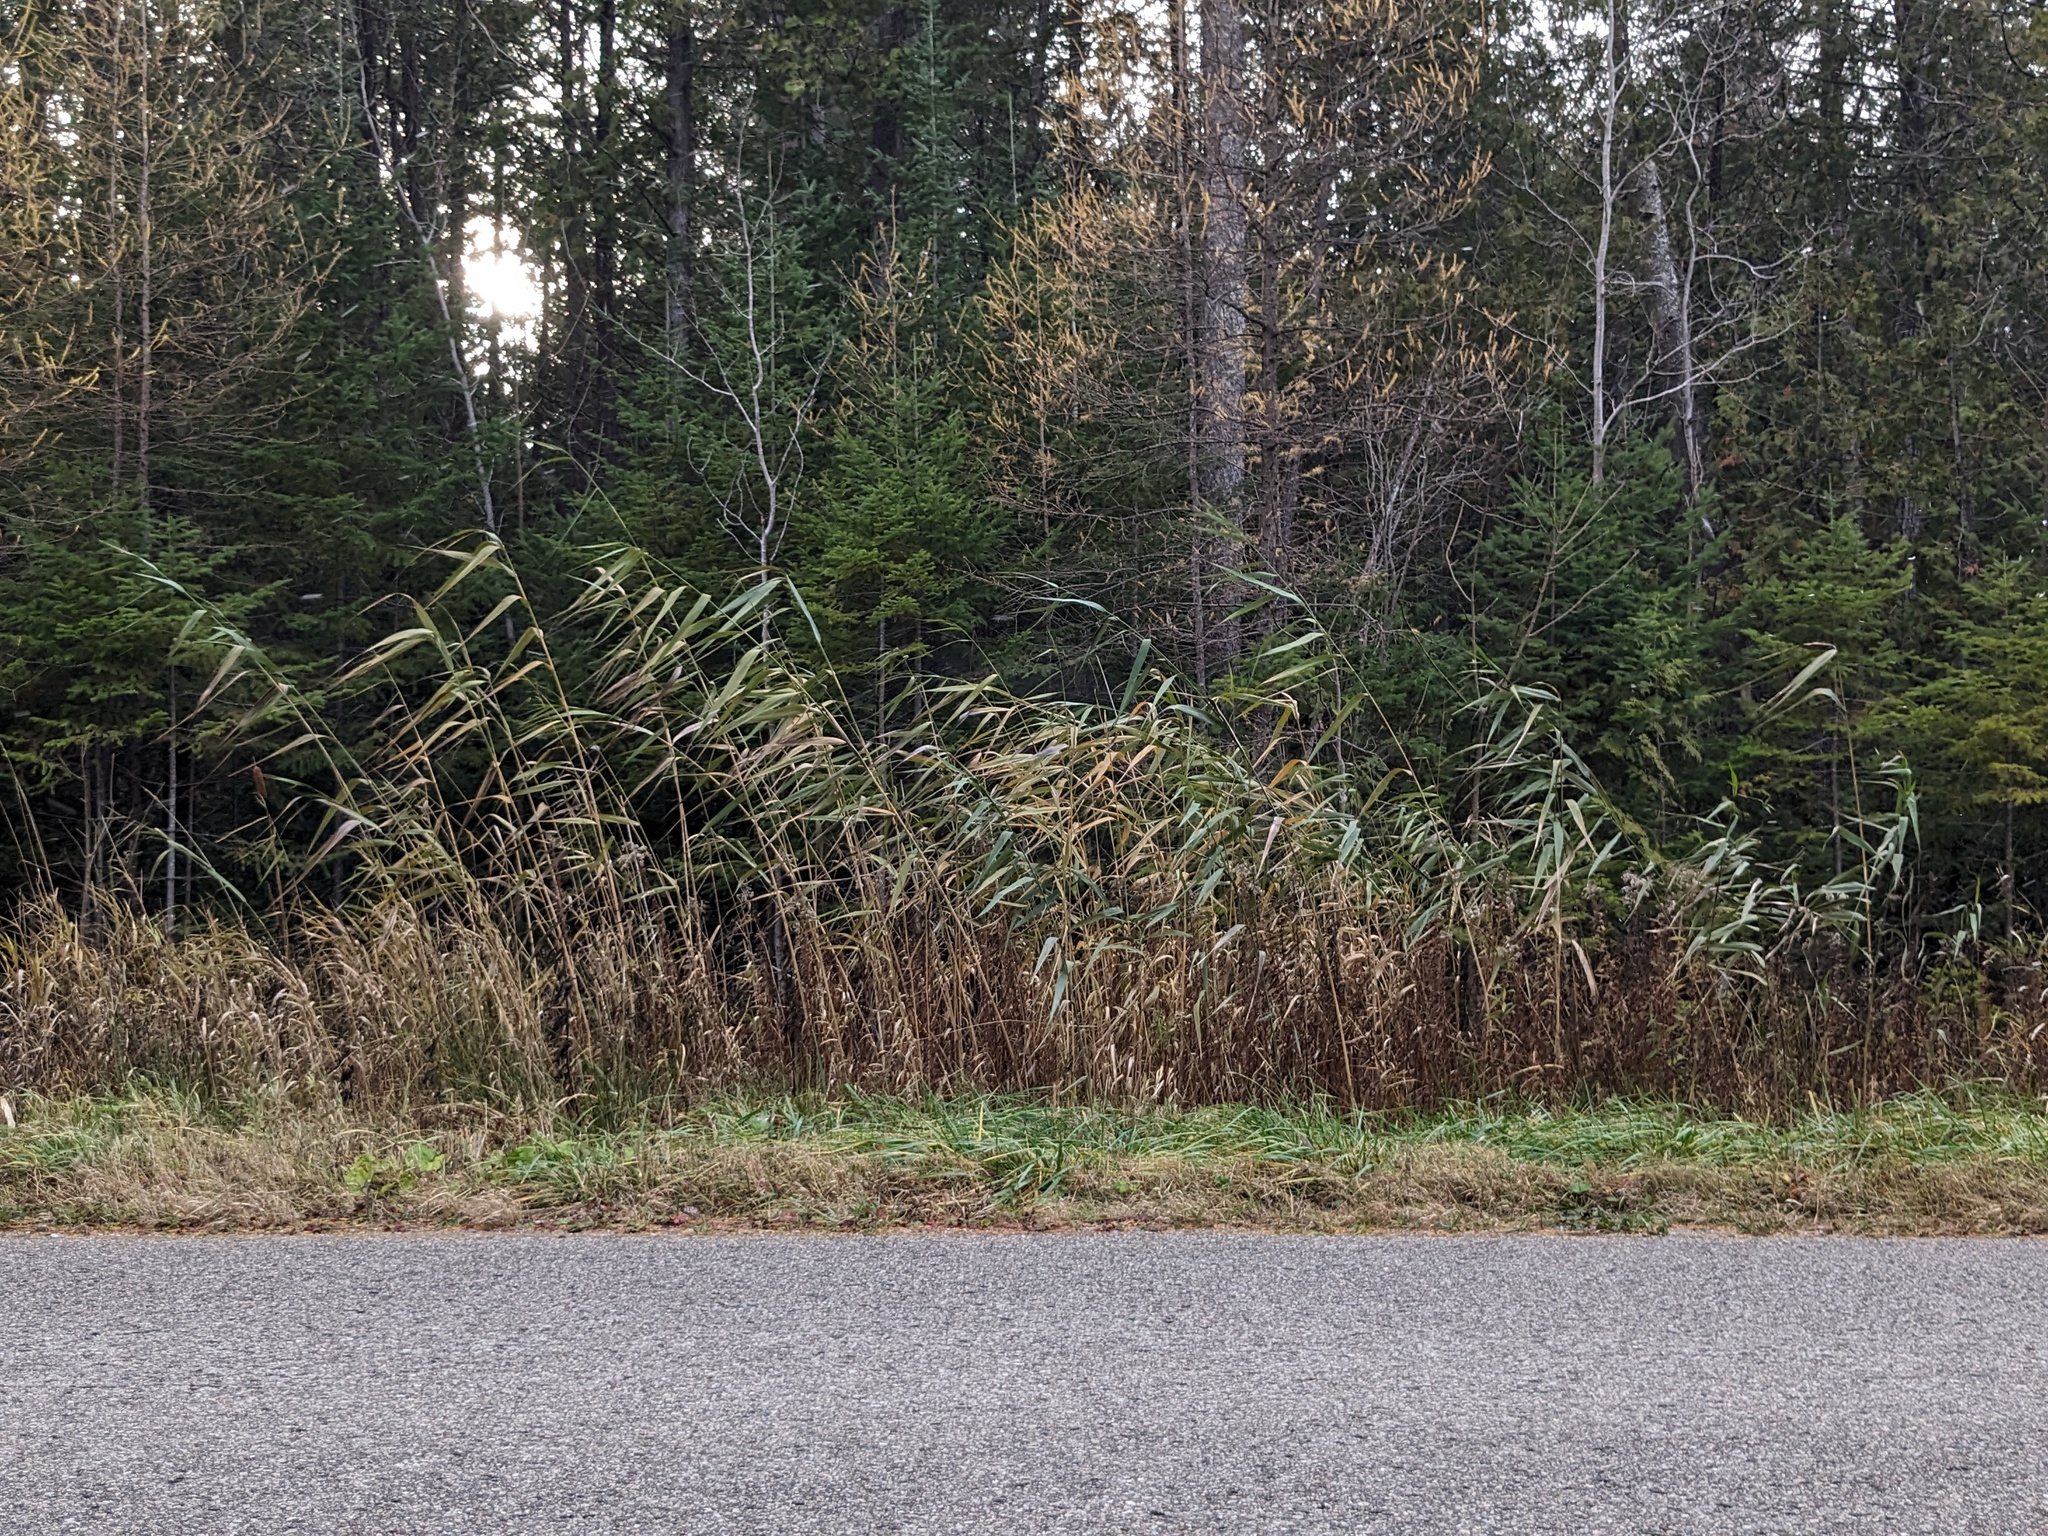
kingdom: Plantae
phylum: Tracheophyta
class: Liliopsida
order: Poales
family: Poaceae
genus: Phragmites
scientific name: Phragmites australis
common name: Common reed
